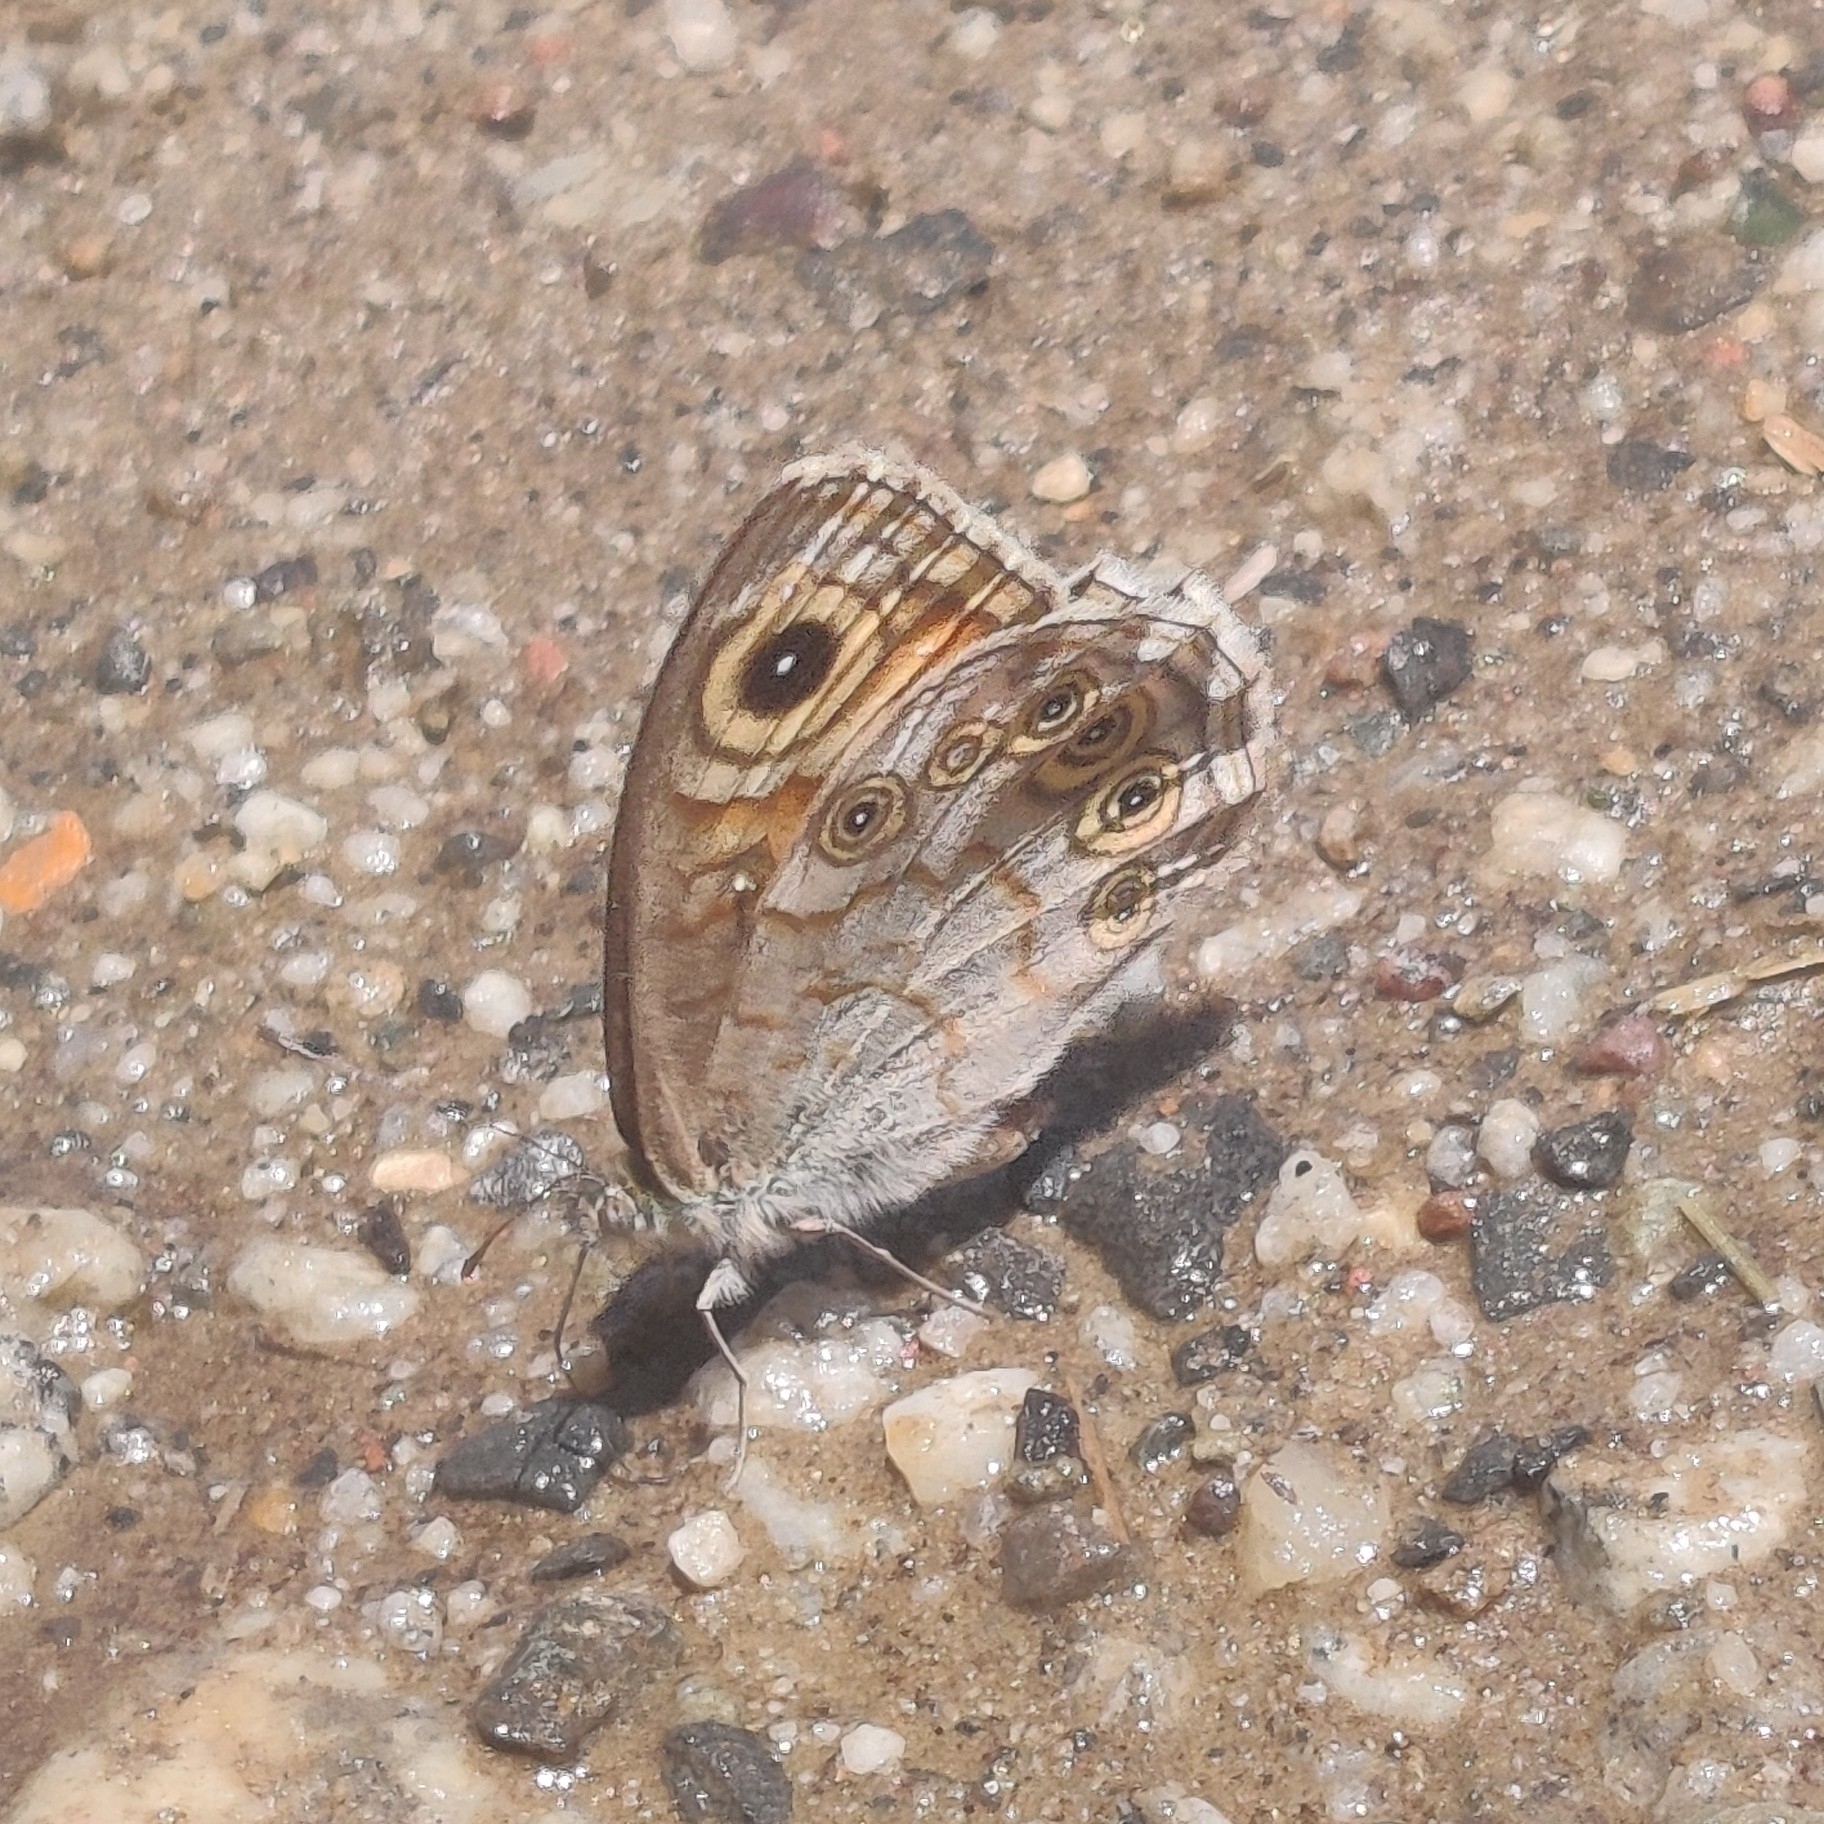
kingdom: Animalia
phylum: Arthropoda
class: Insecta
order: Lepidoptera
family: Nymphalidae
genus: Pararge
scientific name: Pararge Lasiommata schakra
